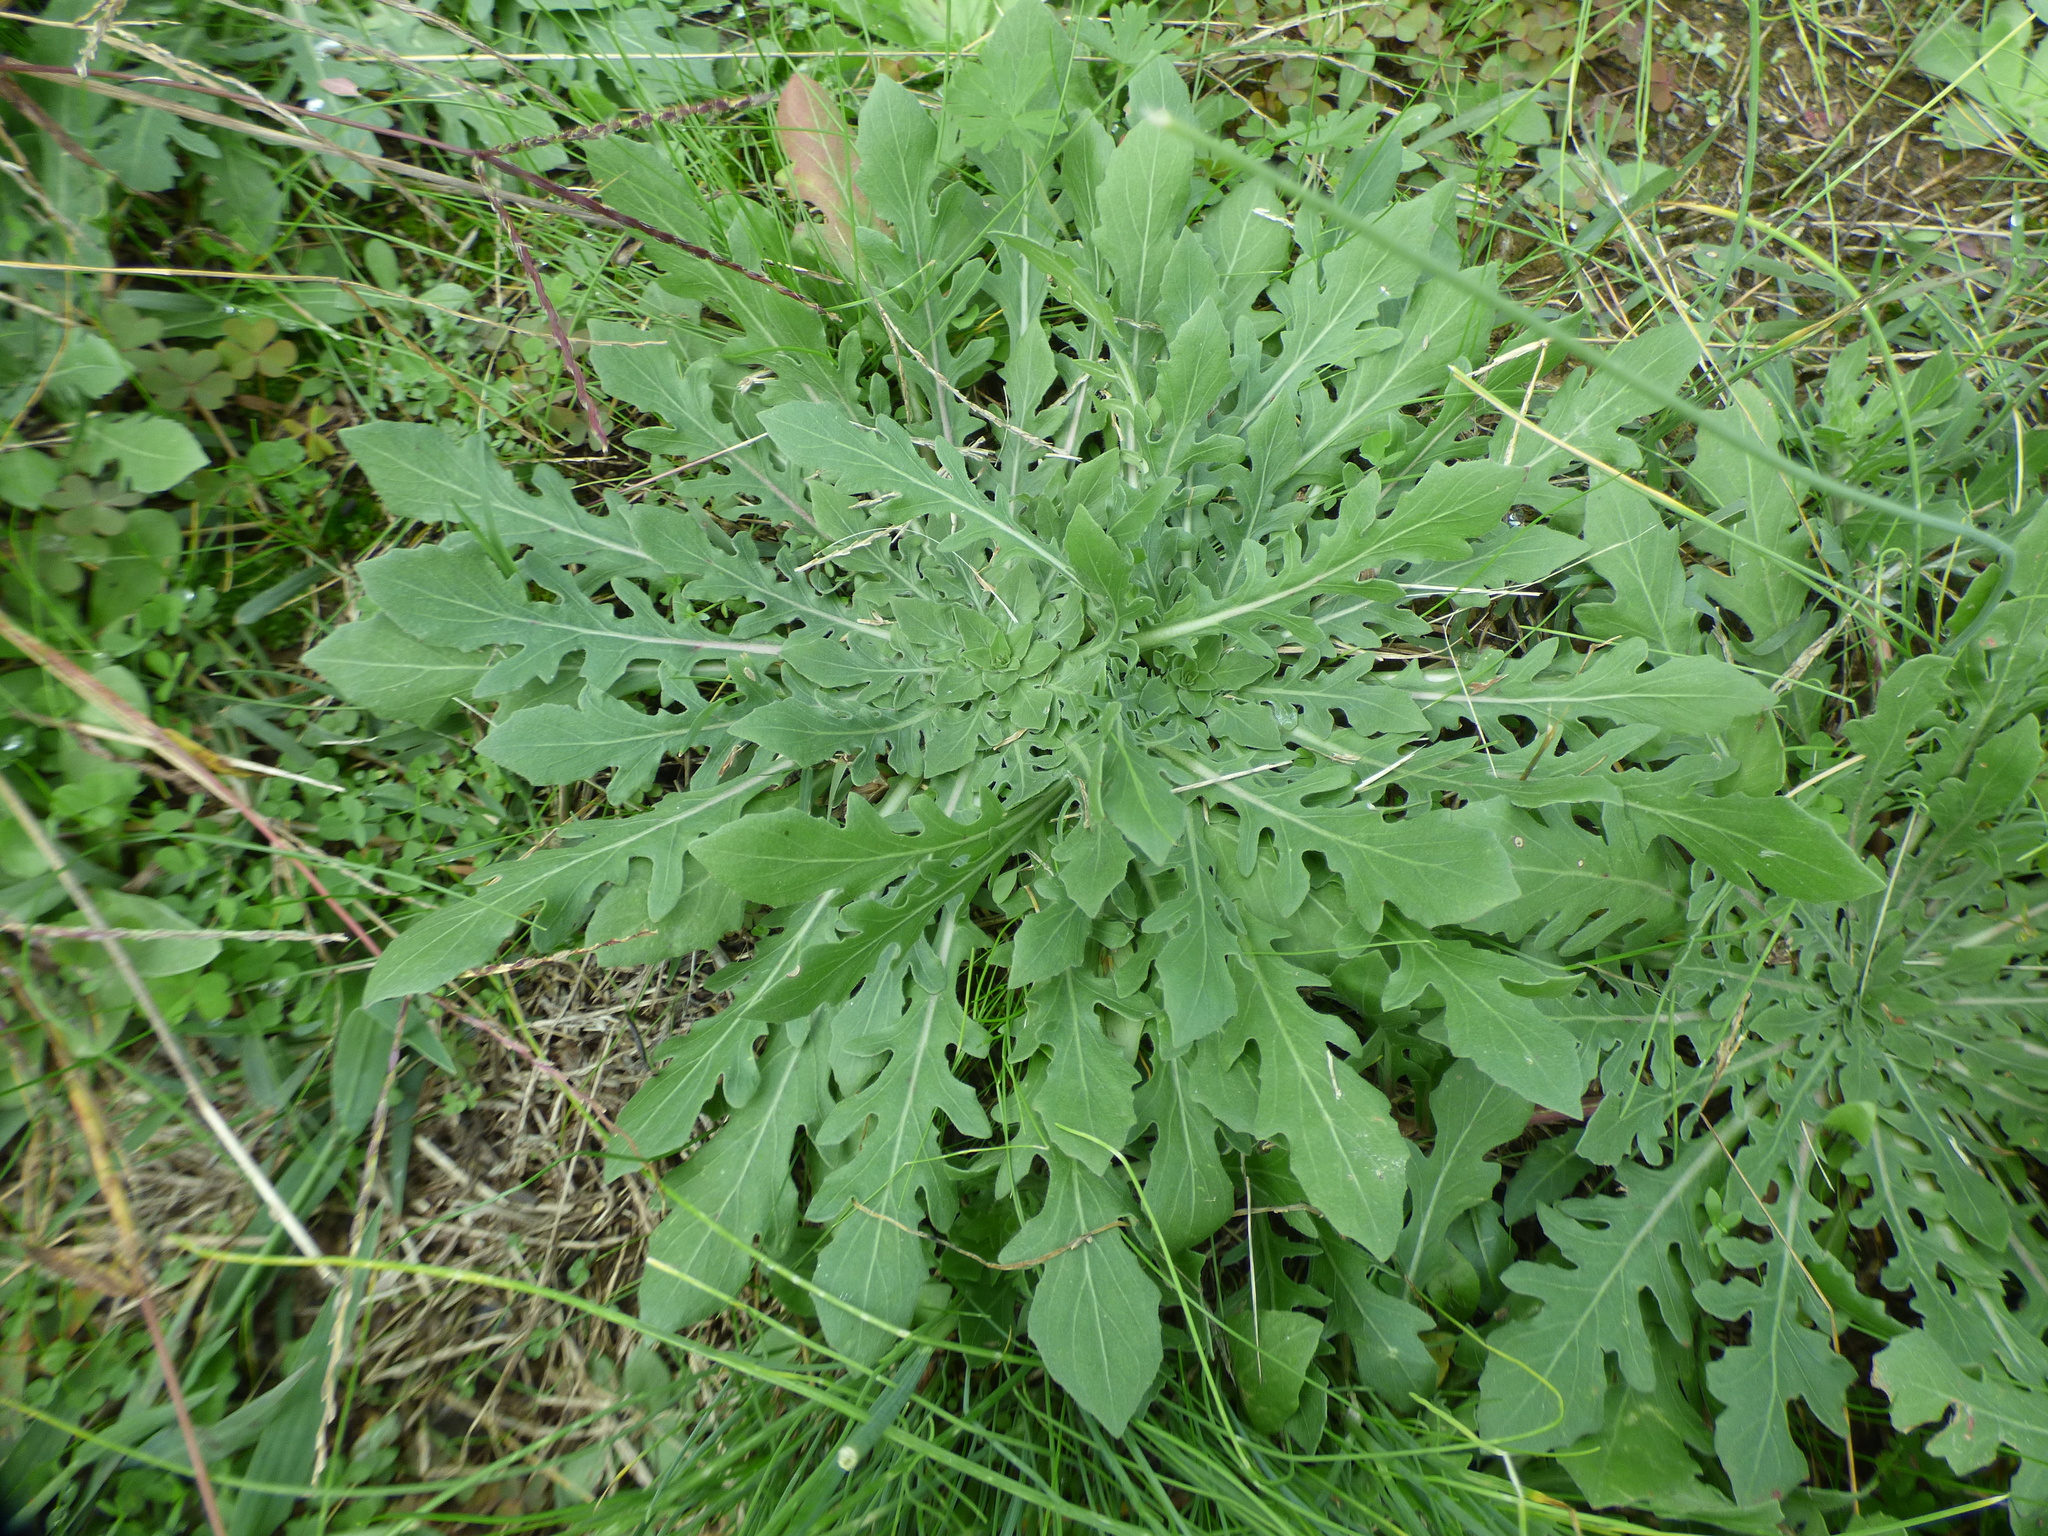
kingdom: Plantae
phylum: Tracheophyta
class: Magnoliopsida
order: Myrtales
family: Onagraceae
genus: Oenothera
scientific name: Oenothera laciniata
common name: Cut-leaved evening-primrose
